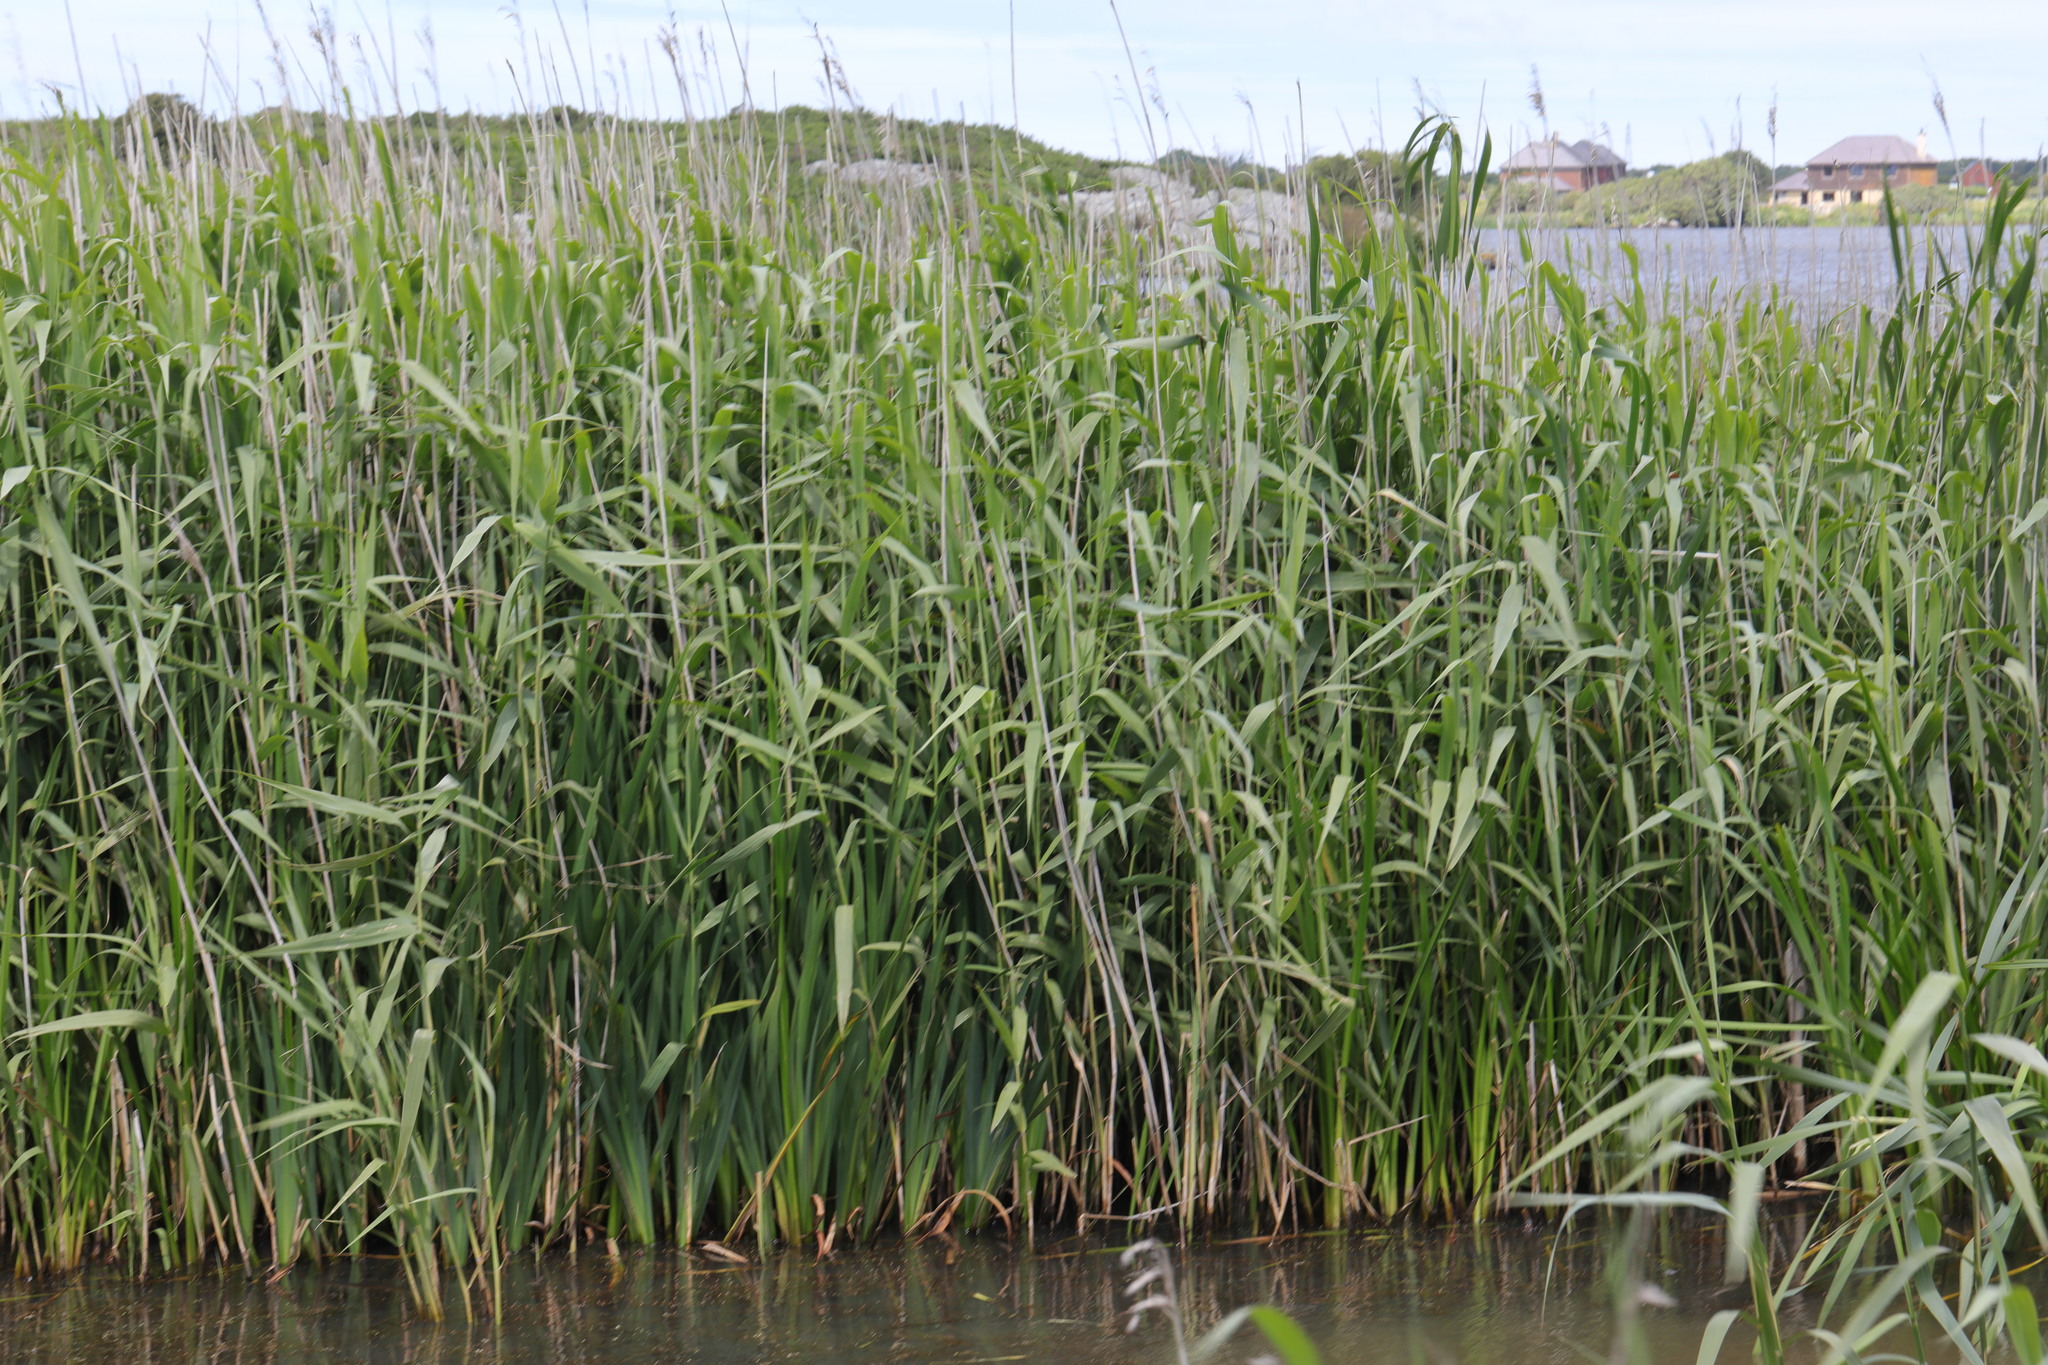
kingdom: Plantae
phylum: Tracheophyta
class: Liliopsida
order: Poales
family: Poaceae
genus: Phragmites
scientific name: Phragmites australis
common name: Common reed
